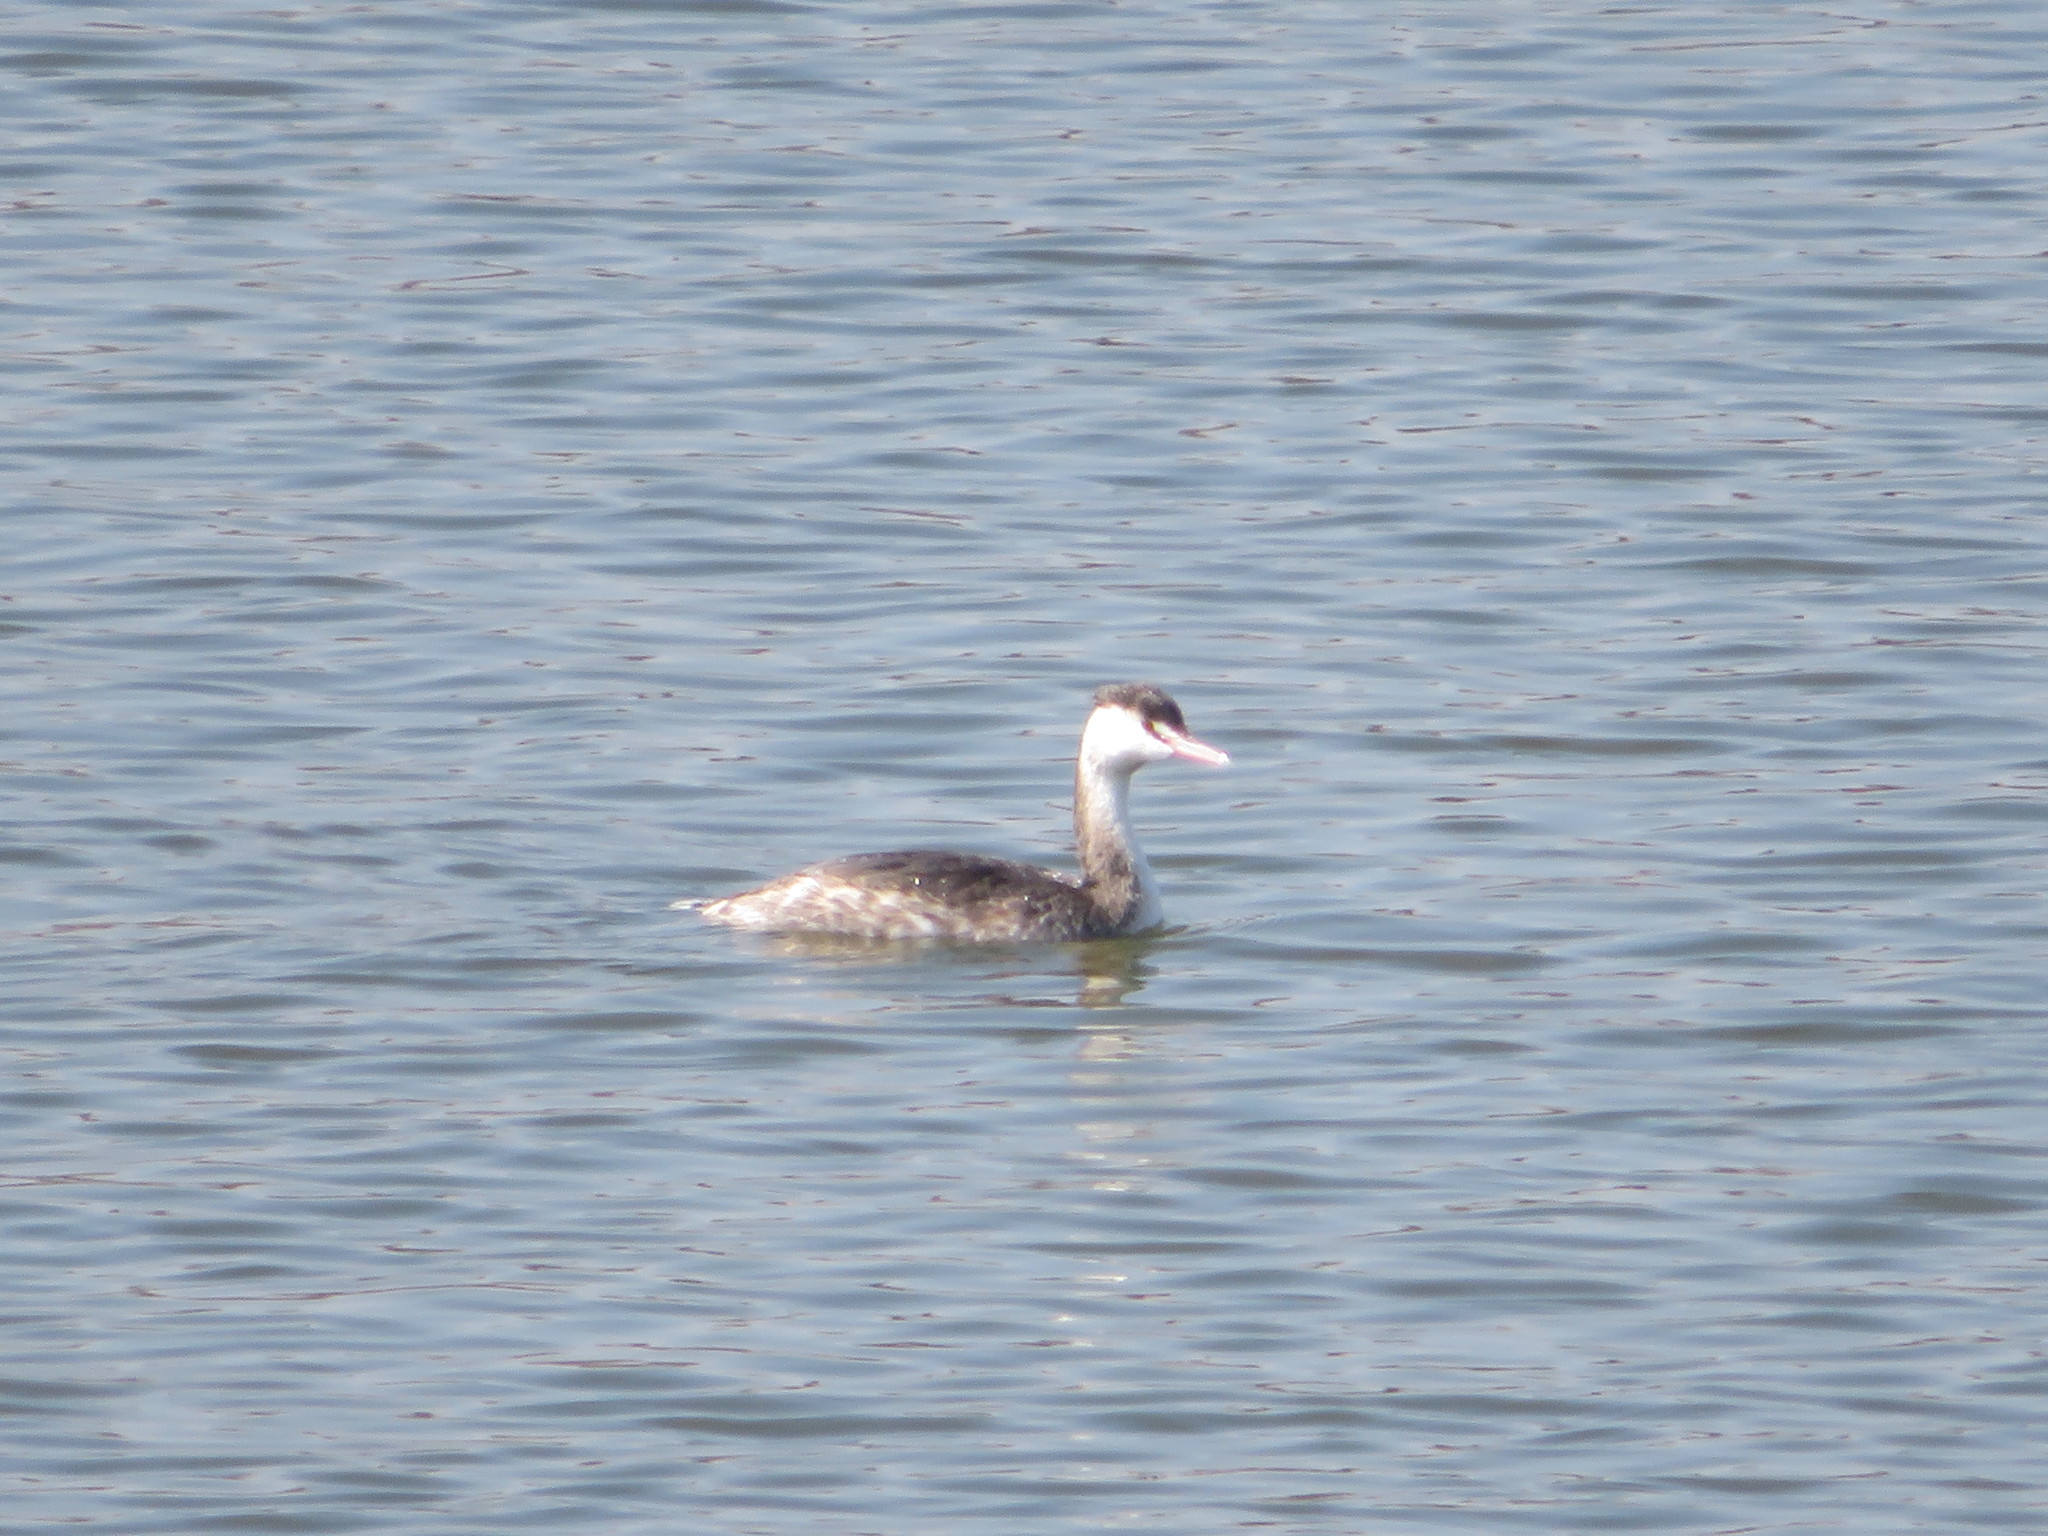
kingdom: Animalia
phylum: Chordata
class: Aves
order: Podicipediformes
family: Podicipedidae
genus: Podiceps
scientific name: Podiceps cristatus
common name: Great crested grebe
